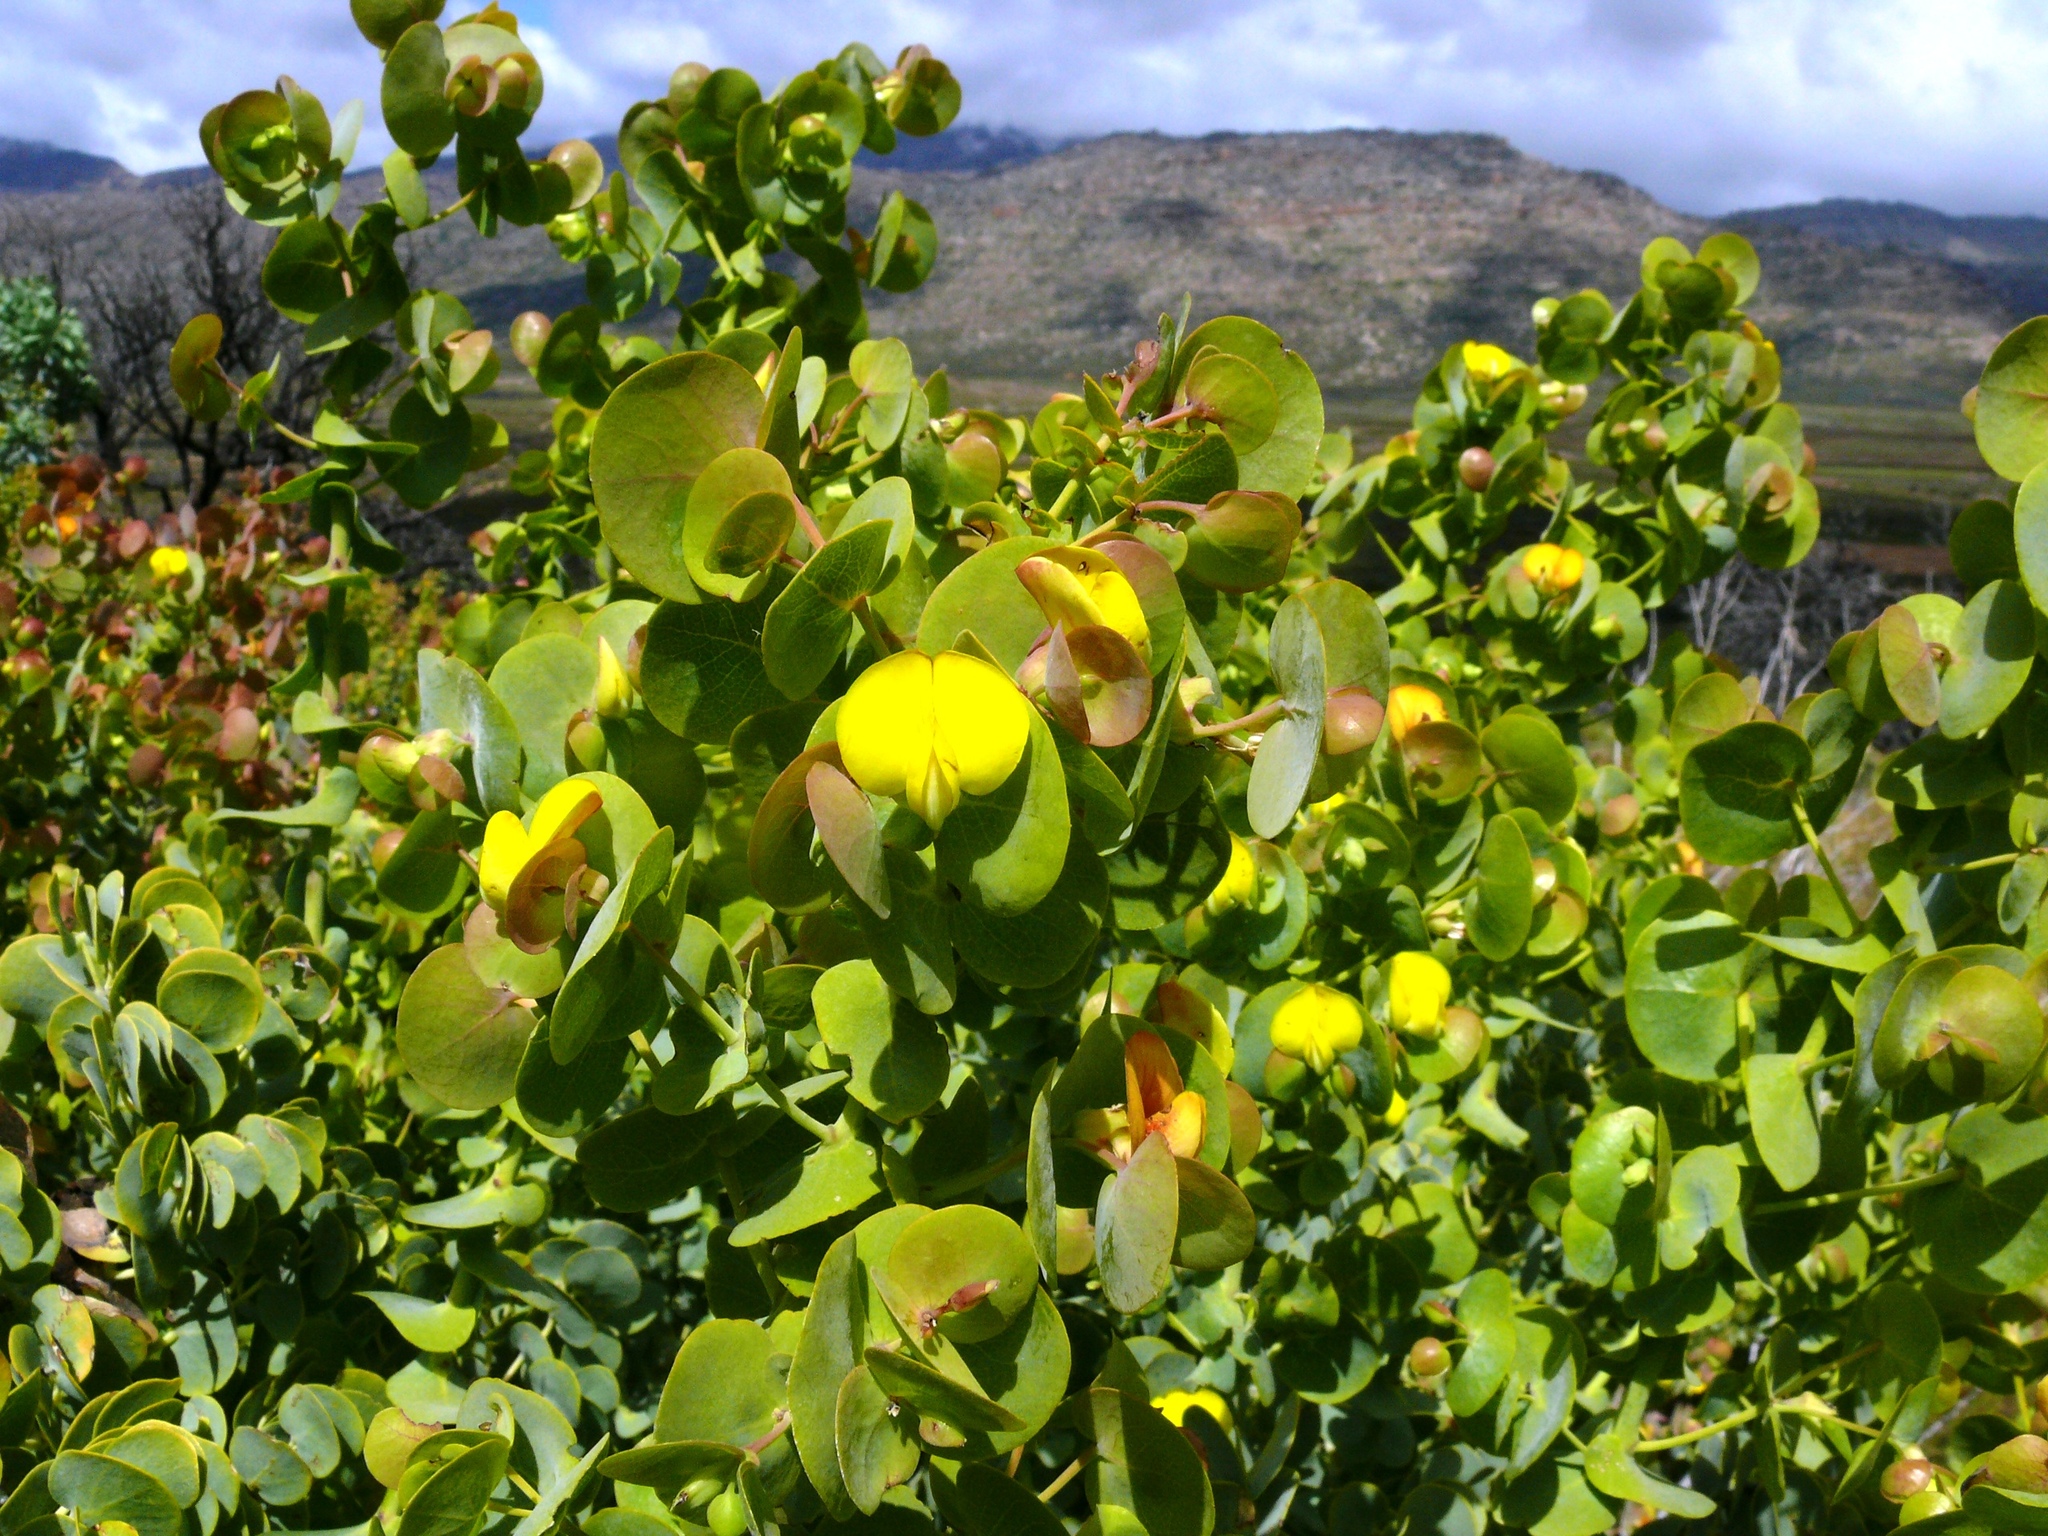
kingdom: Plantae
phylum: Tracheophyta
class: Magnoliopsida
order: Fabales
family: Fabaceae
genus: Rafnia
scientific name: Rafnia amplexicaulis
